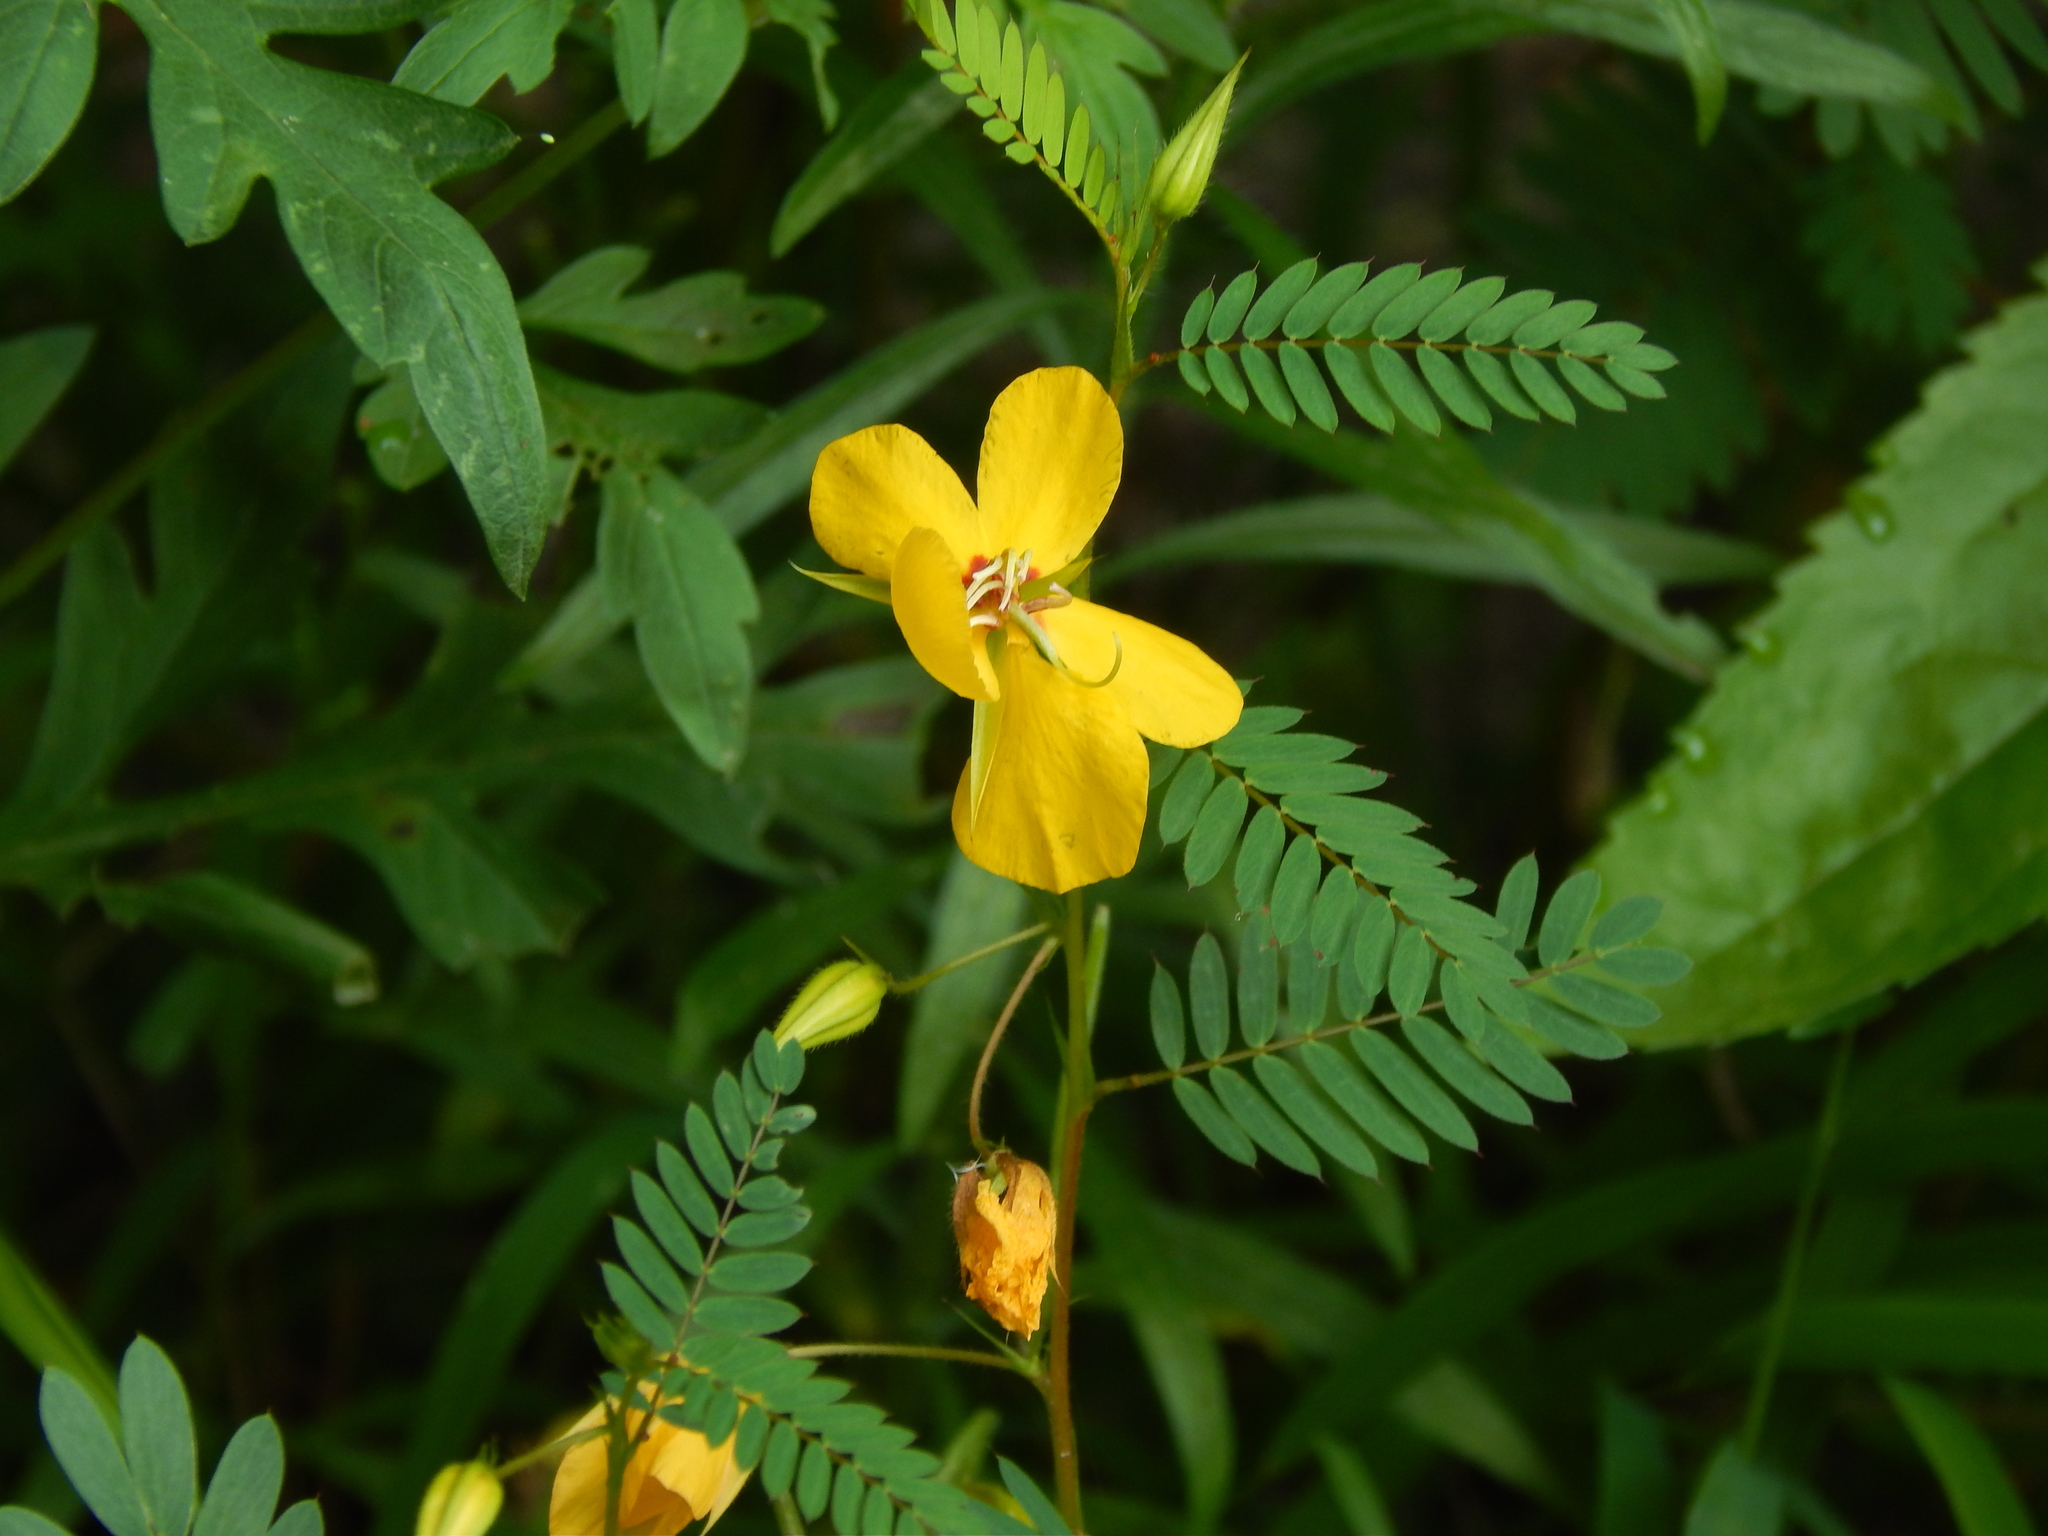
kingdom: Plantae
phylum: Tracheophyta
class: Magnoliopsida
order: Fabales
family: Fabaceae
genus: Chamaecrista
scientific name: Chamaecrista fasciculata
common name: Golden cassia
